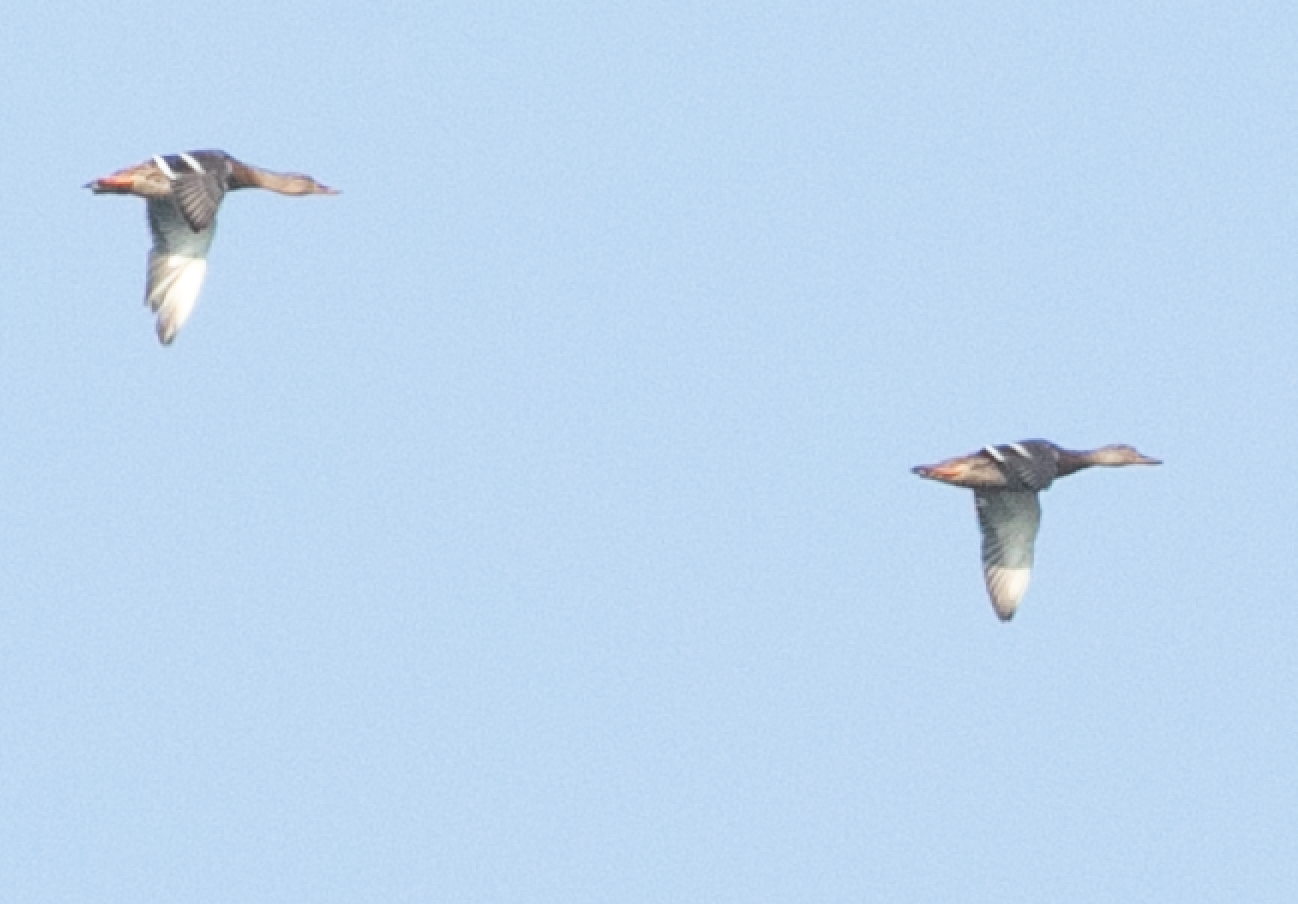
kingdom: Animalia
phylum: Chordata
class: Aves
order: Anseriformes
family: Anatidae
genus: Anas
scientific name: Anas platyrhynchos
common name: Mallard
